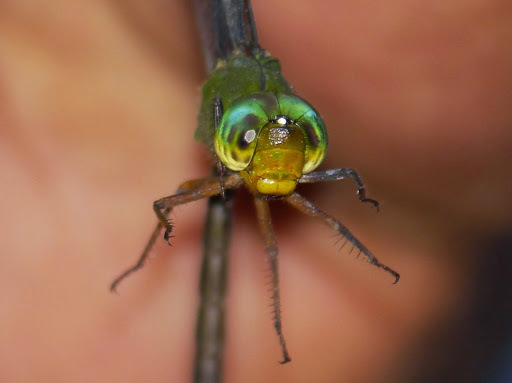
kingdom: Animalia
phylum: Arthropoda
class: Insecta
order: Odonata
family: Aeshnidae
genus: Gynacantha
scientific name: Gynacantha nigeriensis
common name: Yellow-legged duskhawker
